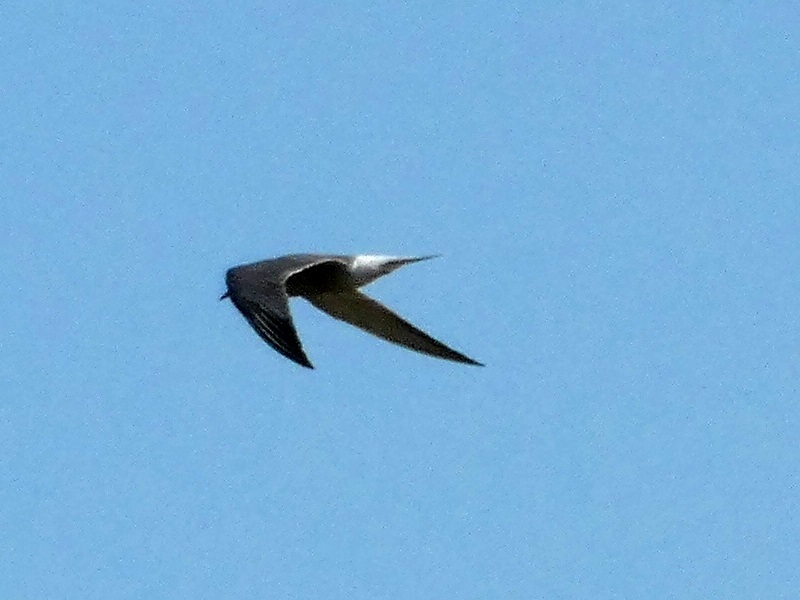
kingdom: Animalia
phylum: Chordata
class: Aves
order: Charadriiformes
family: Laridae
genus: Sterna
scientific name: Sterna hirundo
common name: Common tern
